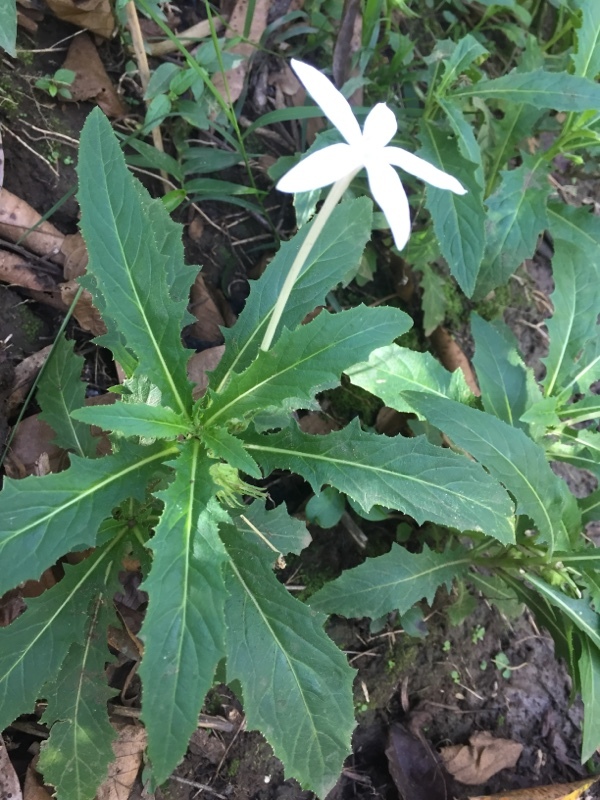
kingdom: Plantae
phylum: Tracheophyta
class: Magnoliopsida
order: Asterales
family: Campanulaceae
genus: Hippobroma
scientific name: Hippobroma longiflora
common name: Madamfate
